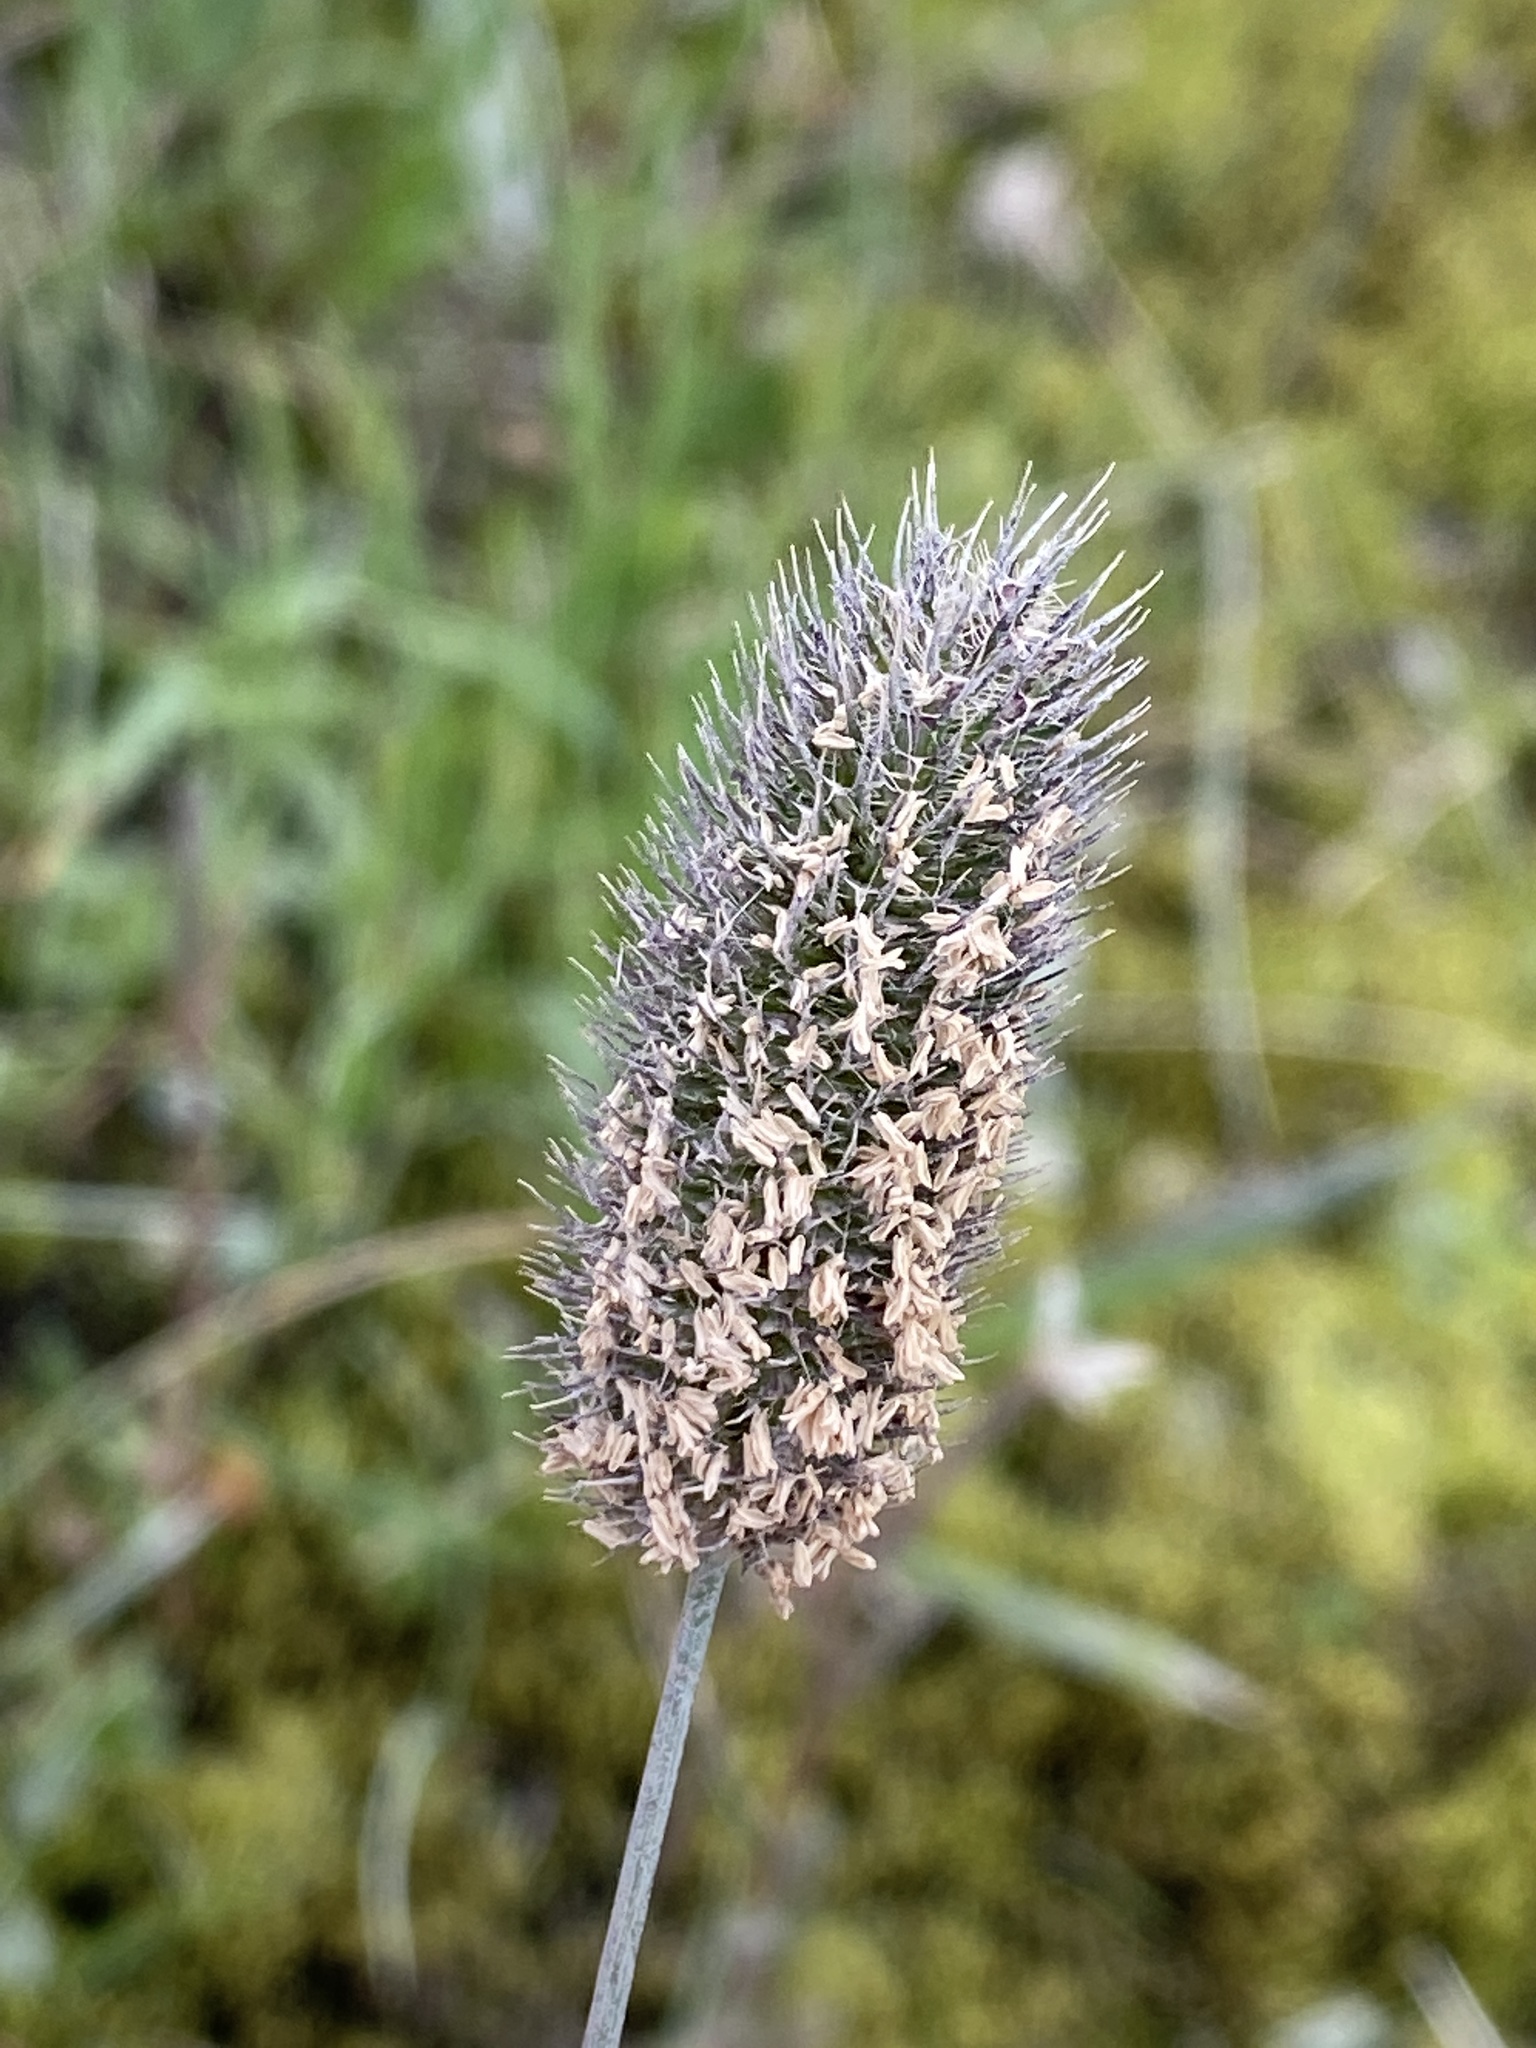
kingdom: Plantae
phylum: Tracheophyta
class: Liliopsida
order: Poales
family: Poaceae
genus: Phleum
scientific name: Phleum alpinum
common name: Alpine cat's-tail
